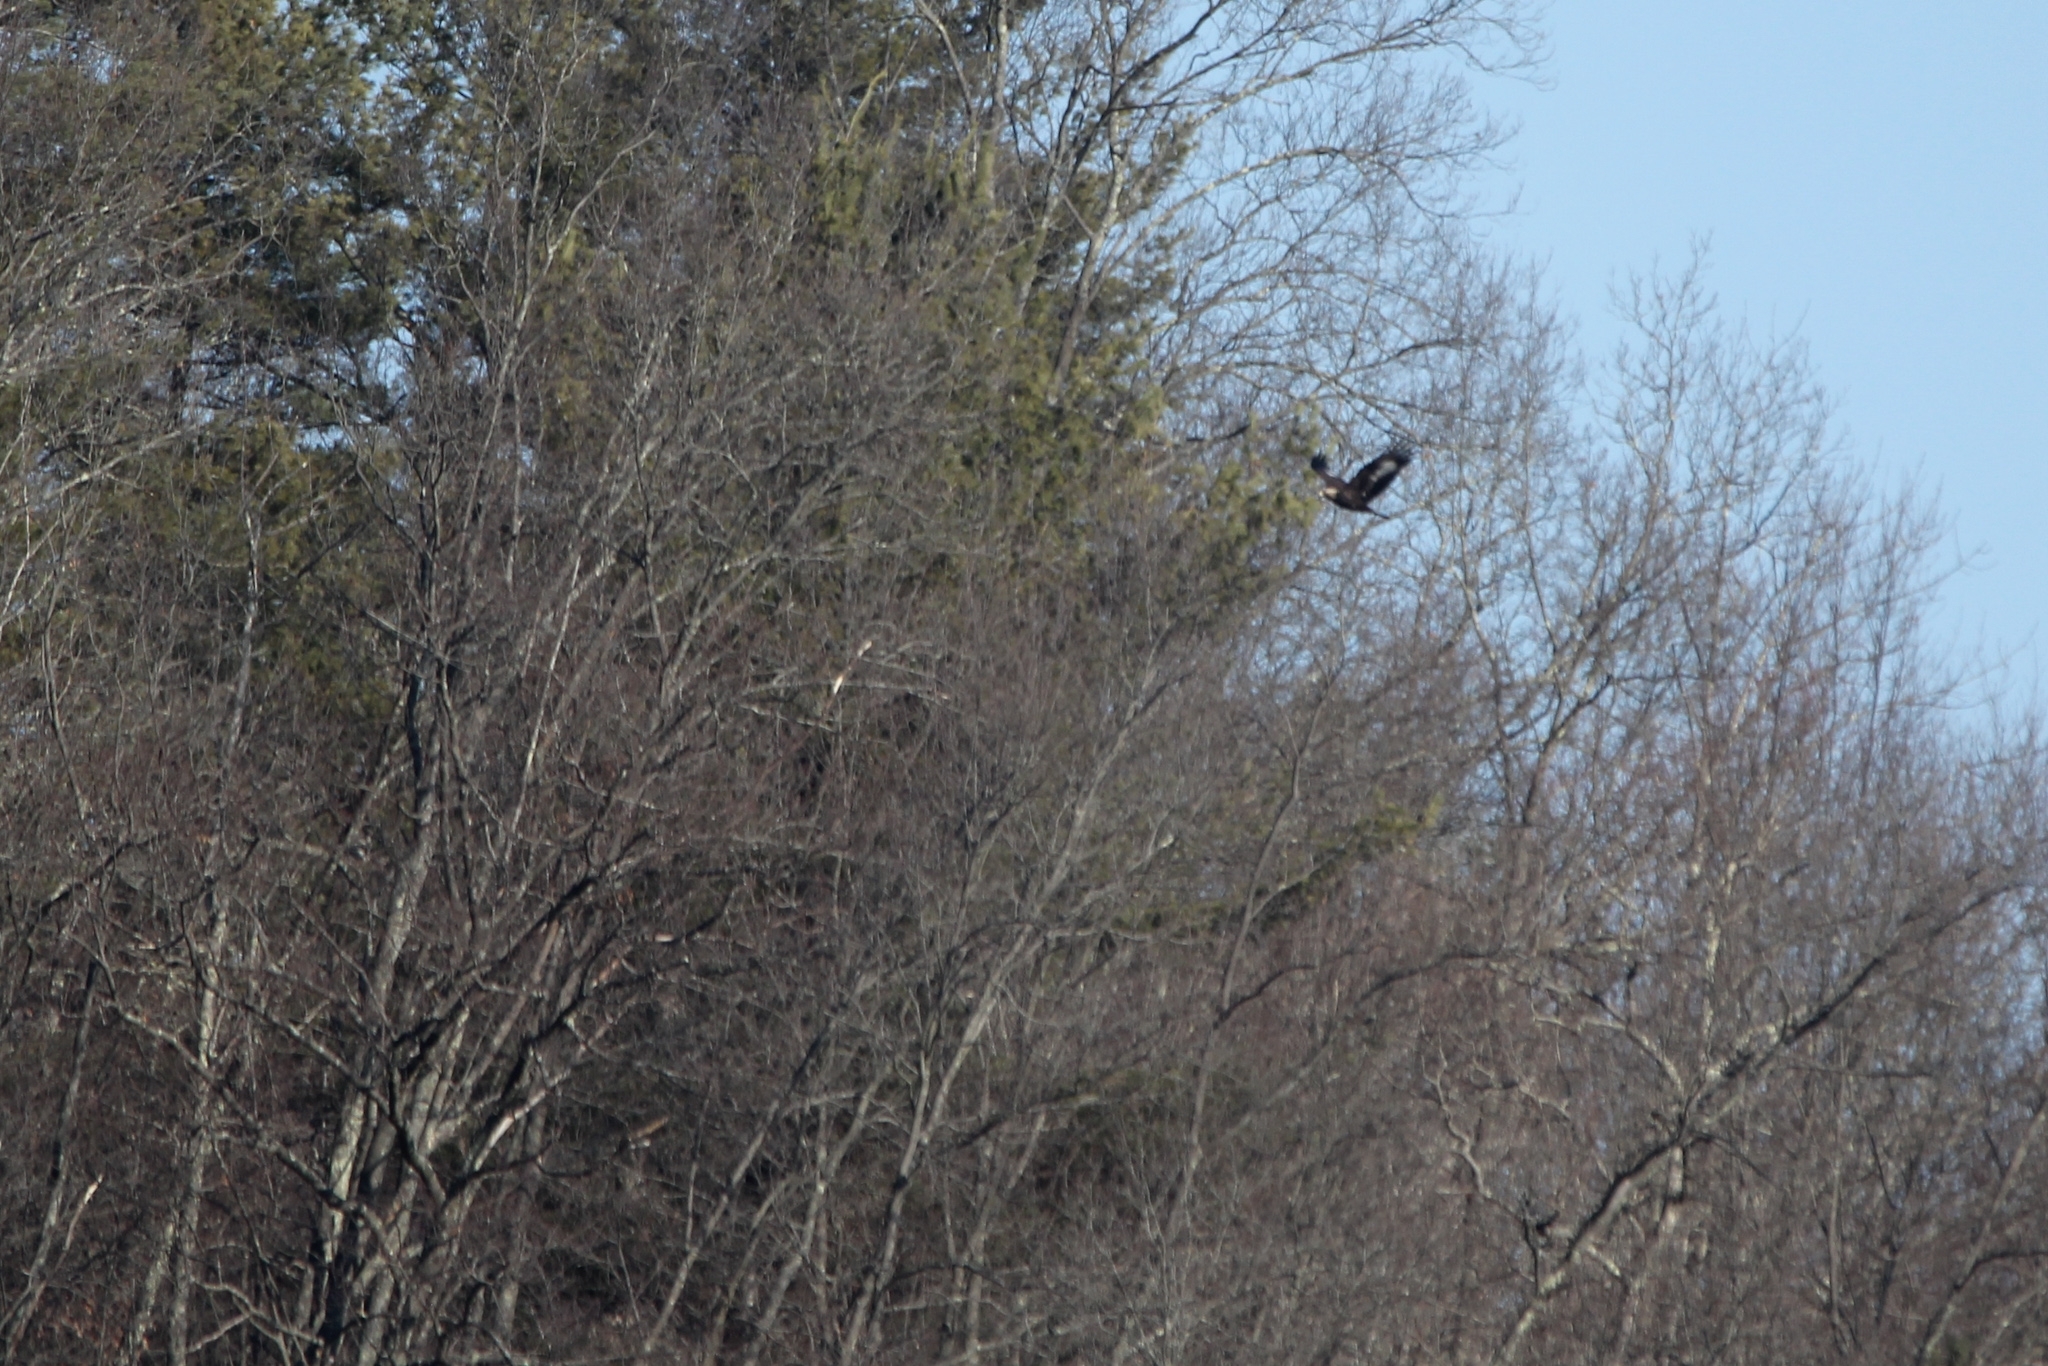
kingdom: Animalia
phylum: Chordata
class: Aves
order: Accipitriformes
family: Accipitridae
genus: Aquila
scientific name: Aquila chrysaetos
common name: Golden eagle
